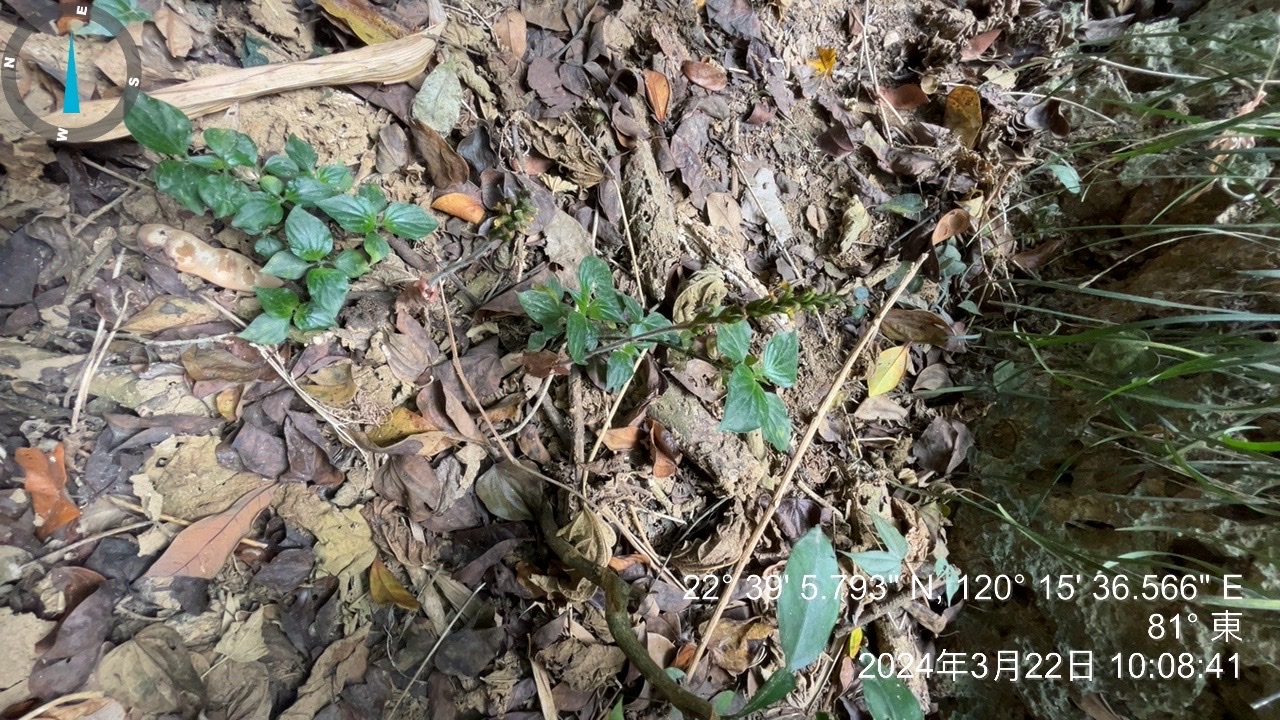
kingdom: Plantae
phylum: Tracheophyta
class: Liliopsida
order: Asparagales
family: Orchidaceae
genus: Zeuxine
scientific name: Zeuxine flava
